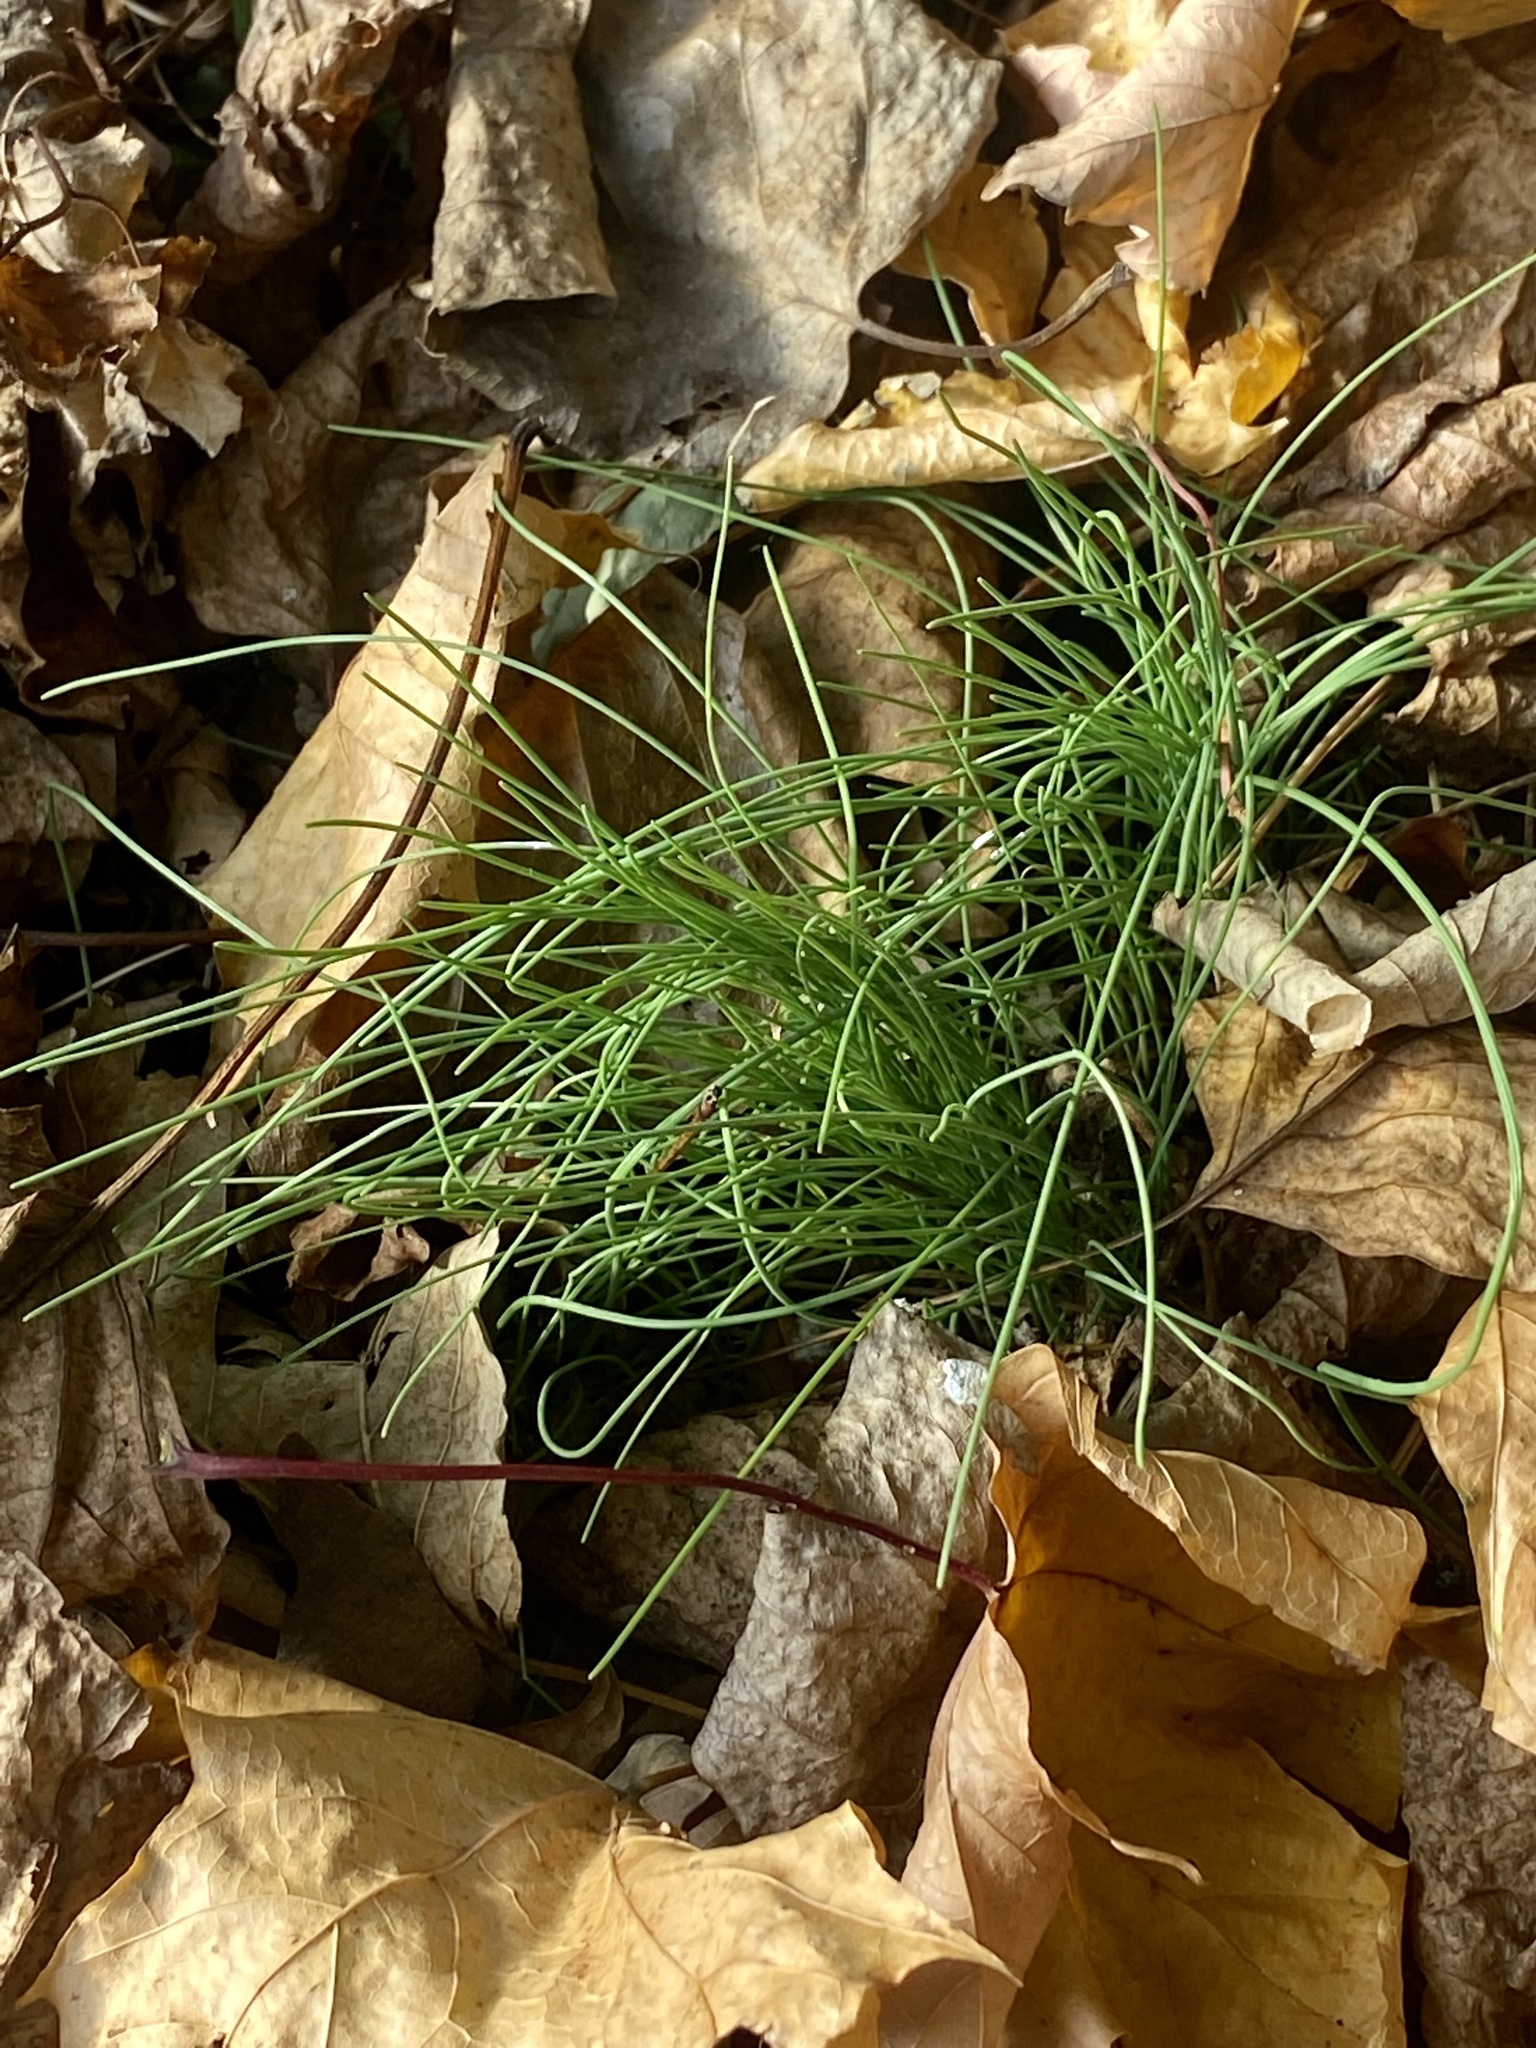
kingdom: Plantae
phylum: Tracheophyta
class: Liliopsida
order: Asparagales
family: Amaryllidaceae
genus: Allium
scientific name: Allium vineale
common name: Crow garlic
